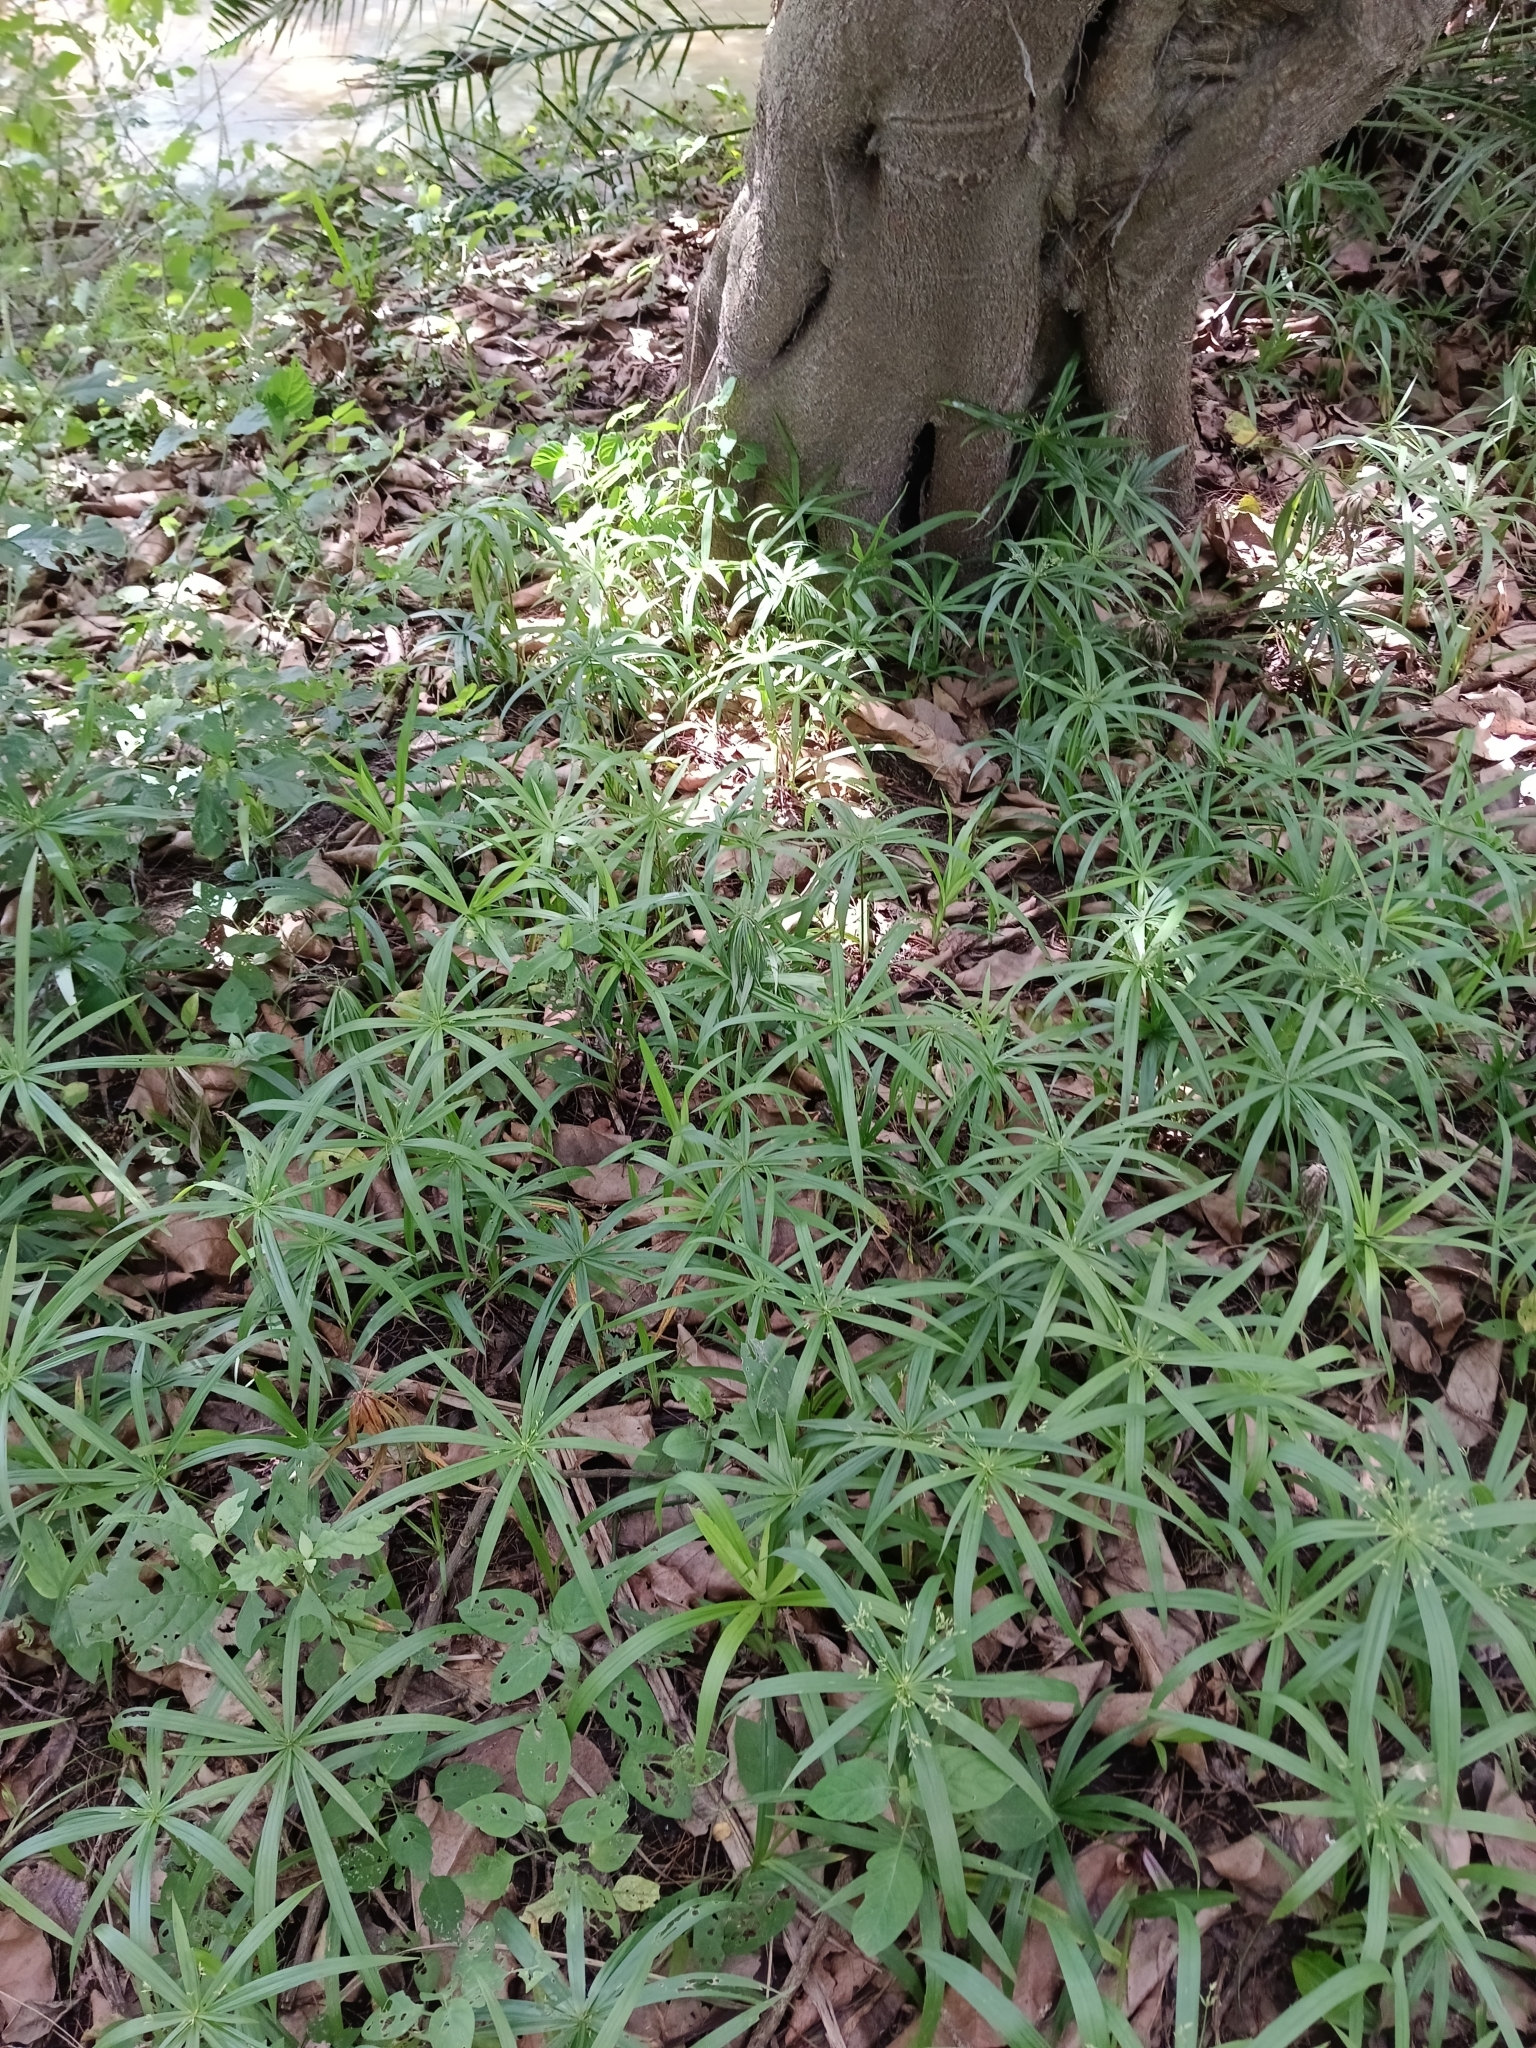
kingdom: Plantae
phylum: Tracheophyta
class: Liliopsida
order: Poales
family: Cyperaceae
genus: Cyperus
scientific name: Cyperus albostriatus
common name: Dwarf umbrella-grass
